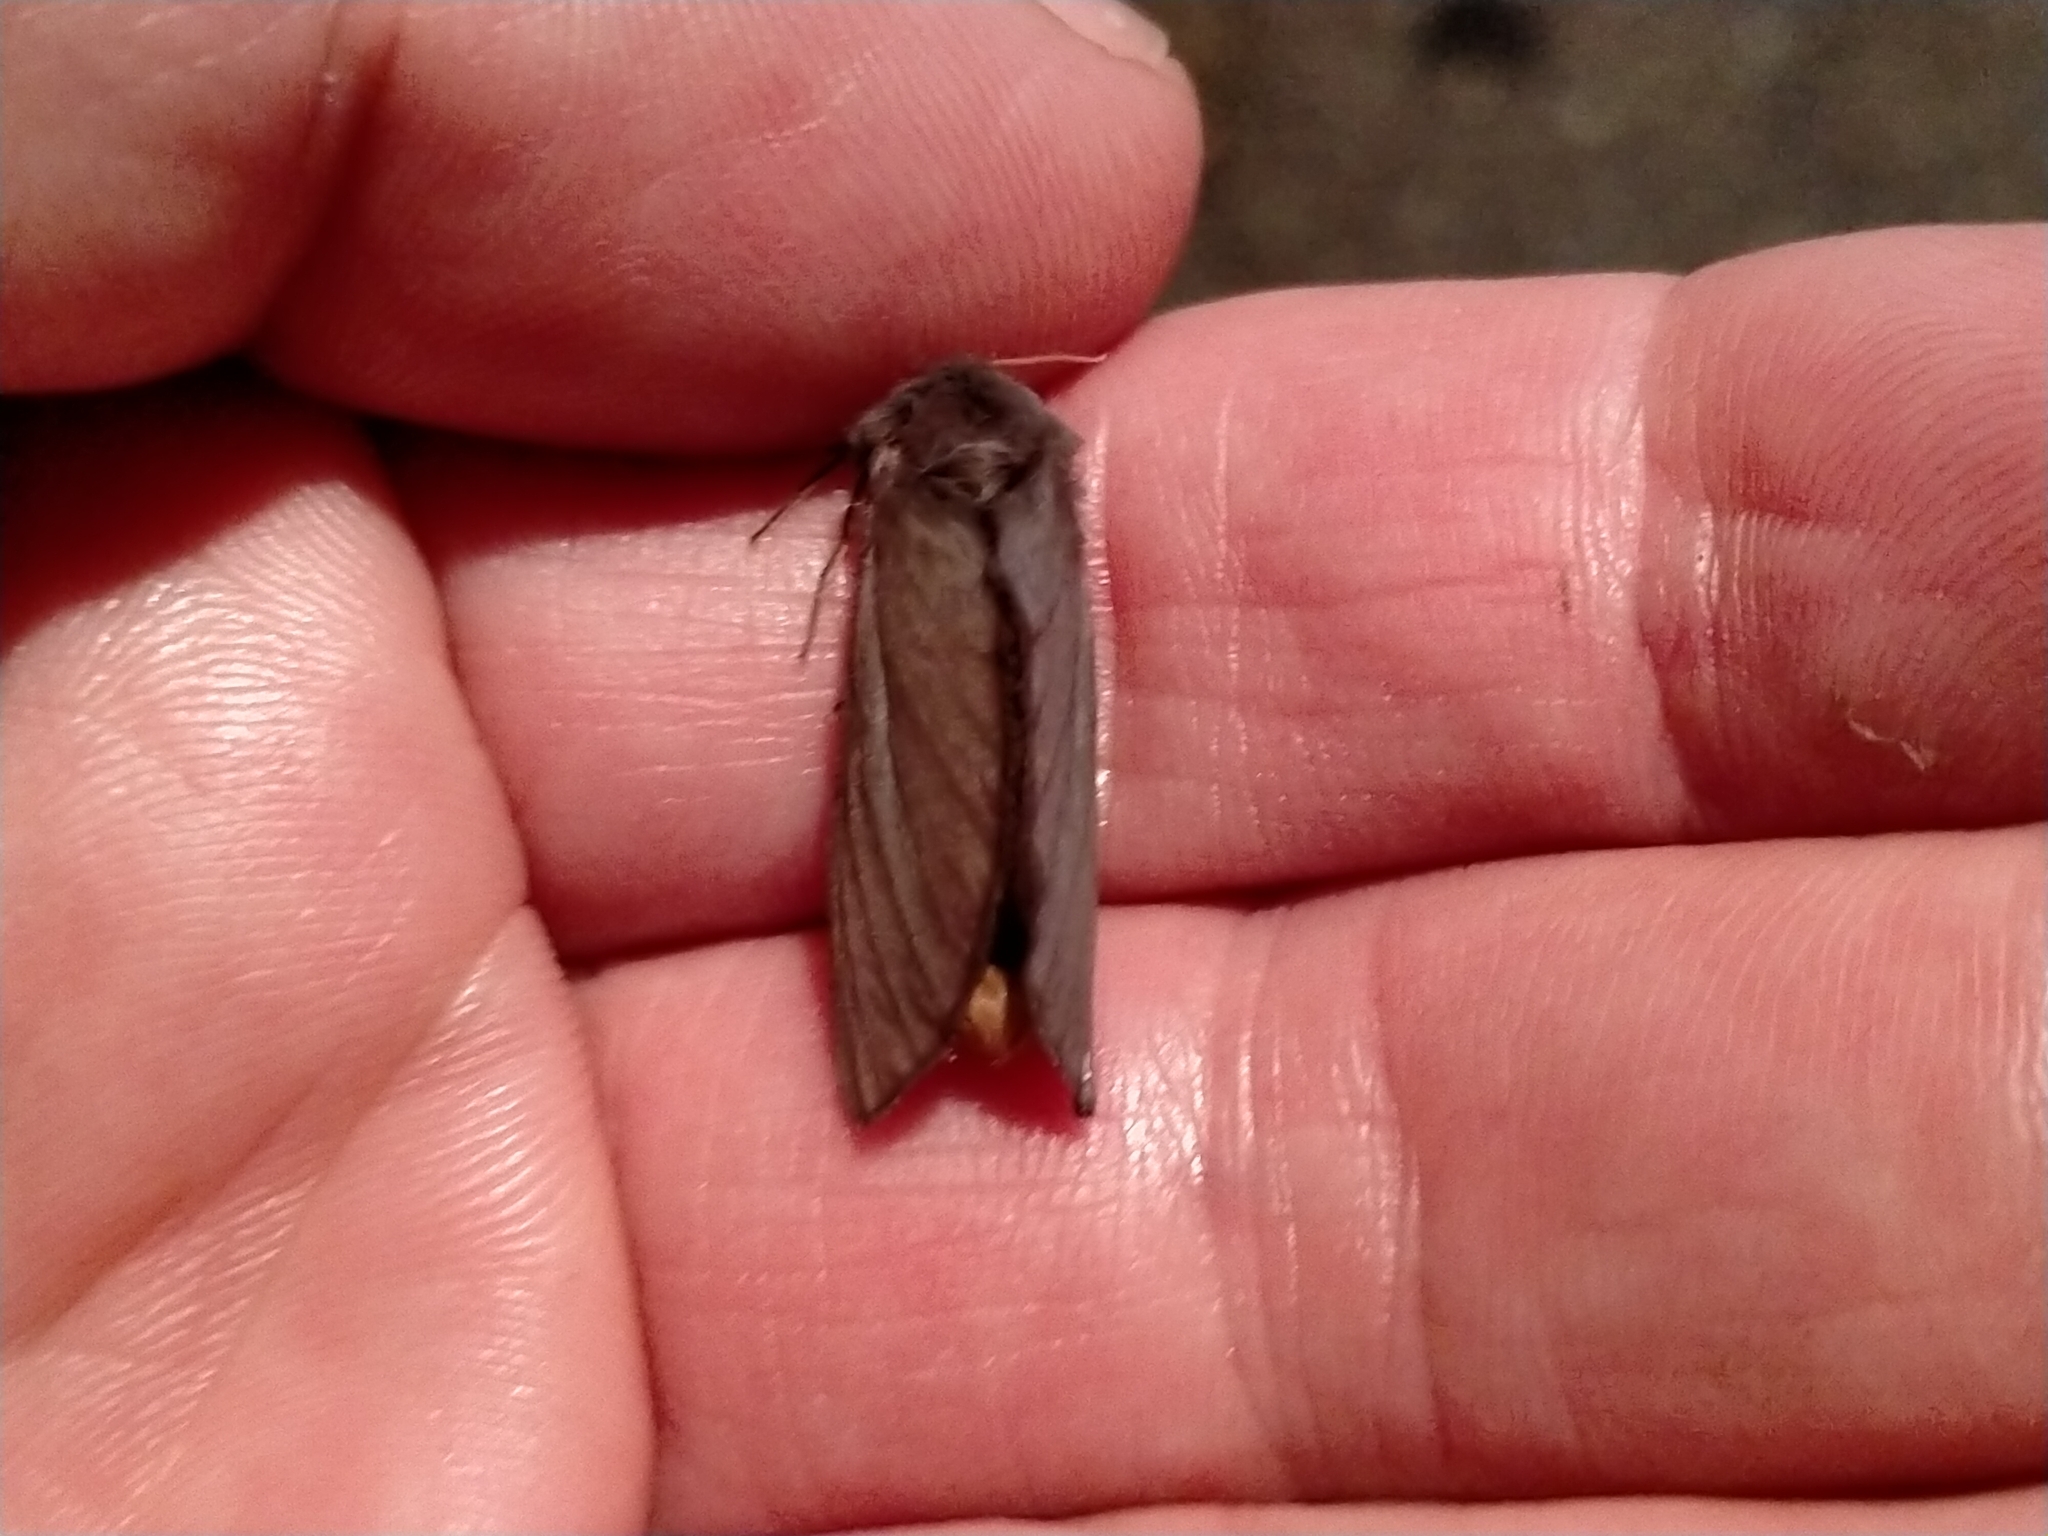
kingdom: Animalia
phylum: Arthropoda
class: Insecta
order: Lepidoptera
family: Hepialidae
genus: Cladoxycanus
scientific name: Cladoxycanus minos
